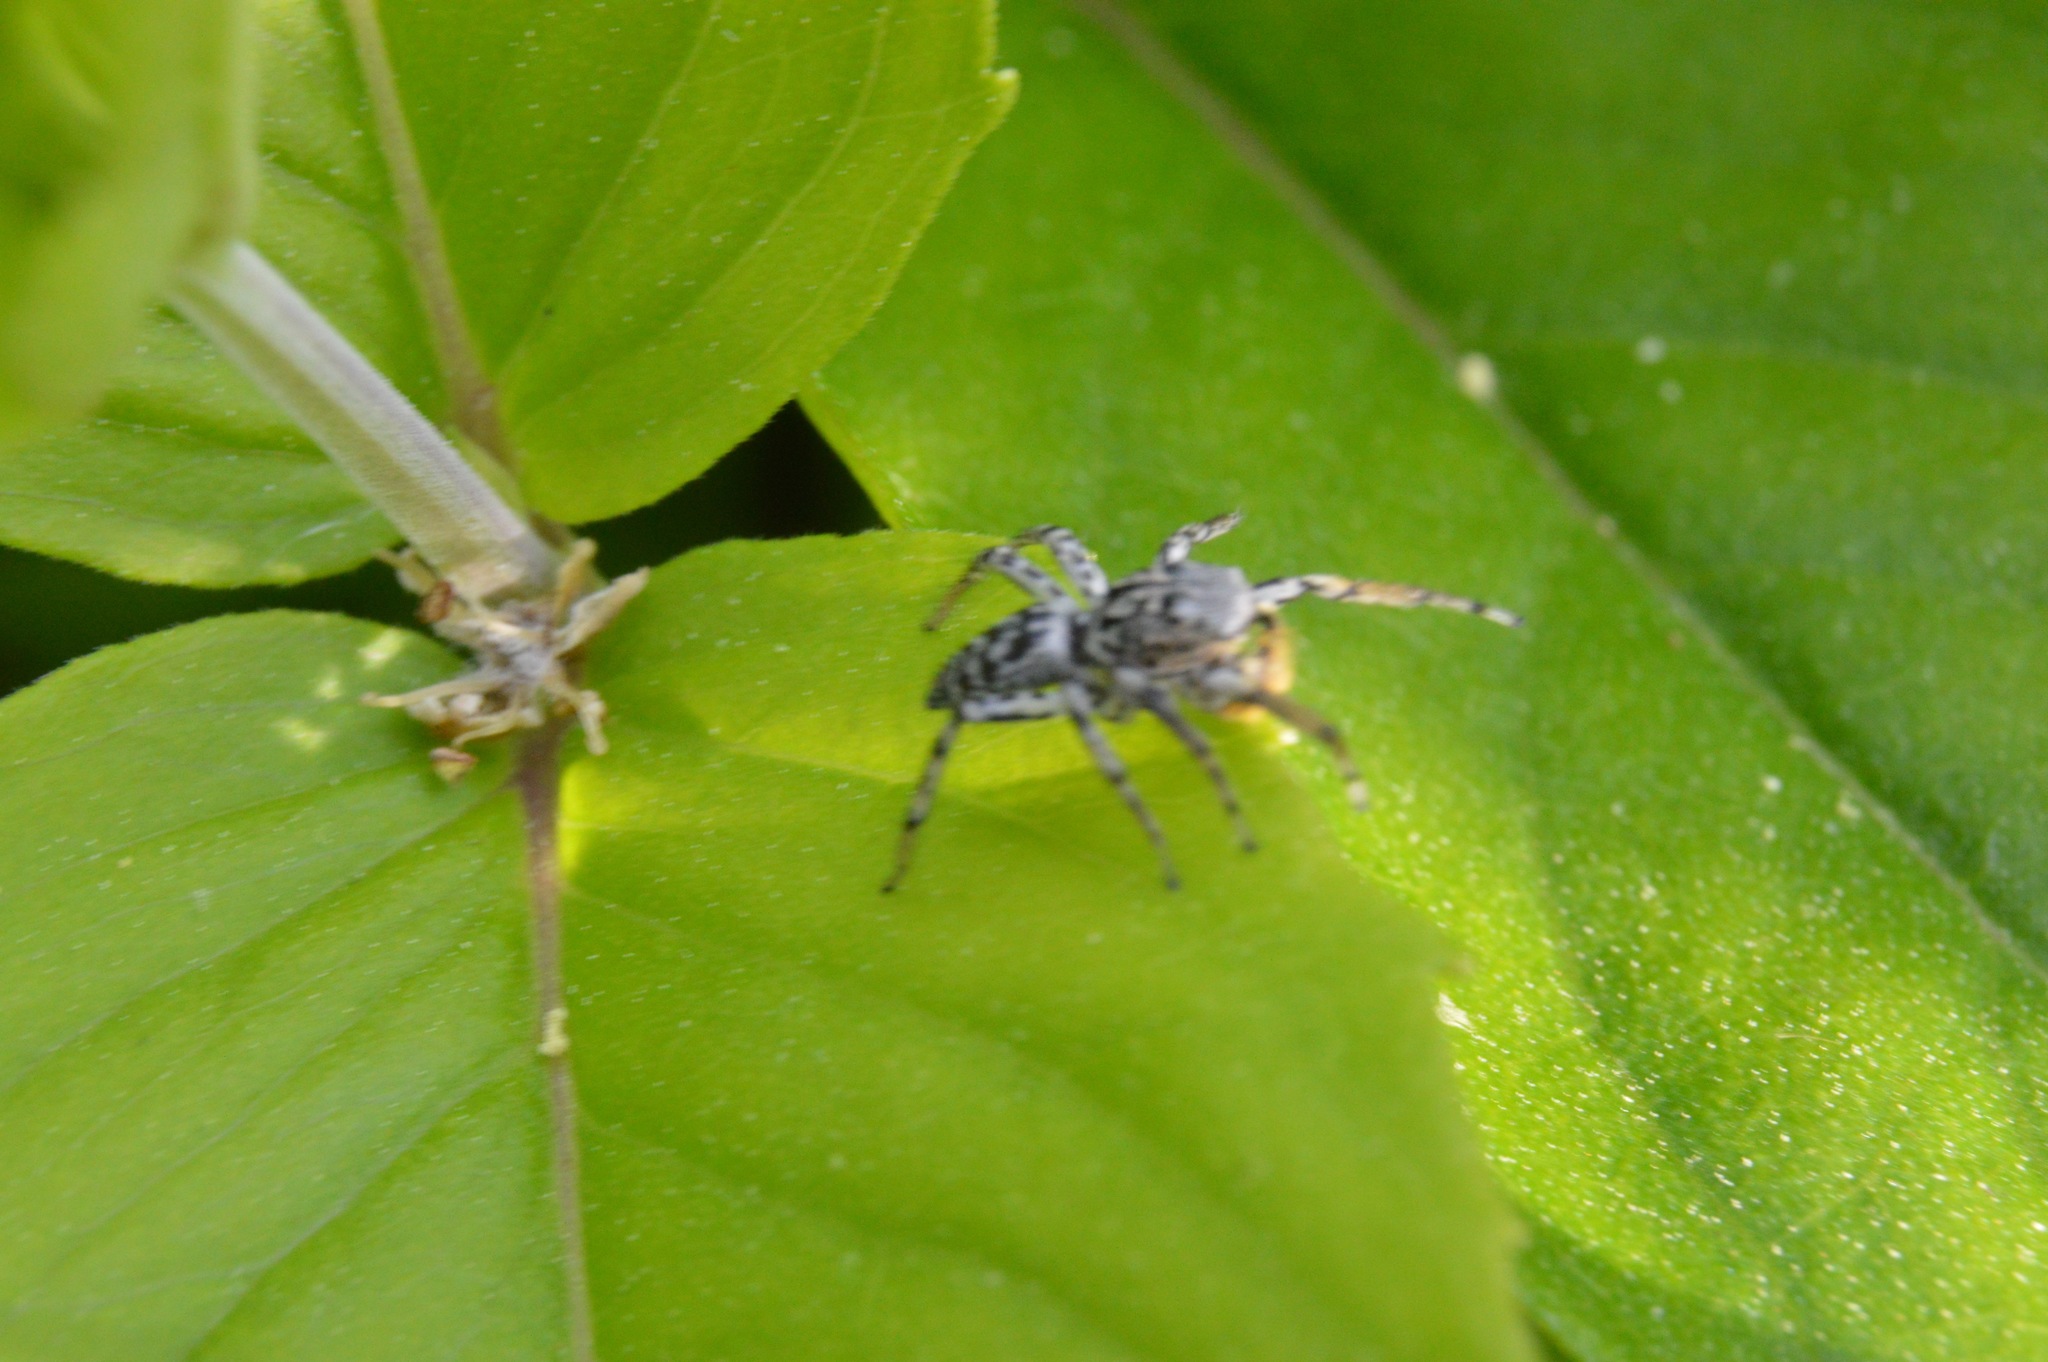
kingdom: Animalia
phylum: Arthropoda
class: Arachnida
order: Araneae
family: Salticidae
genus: Maevia
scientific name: Maevia inclemens
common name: Dimorphic jumper
